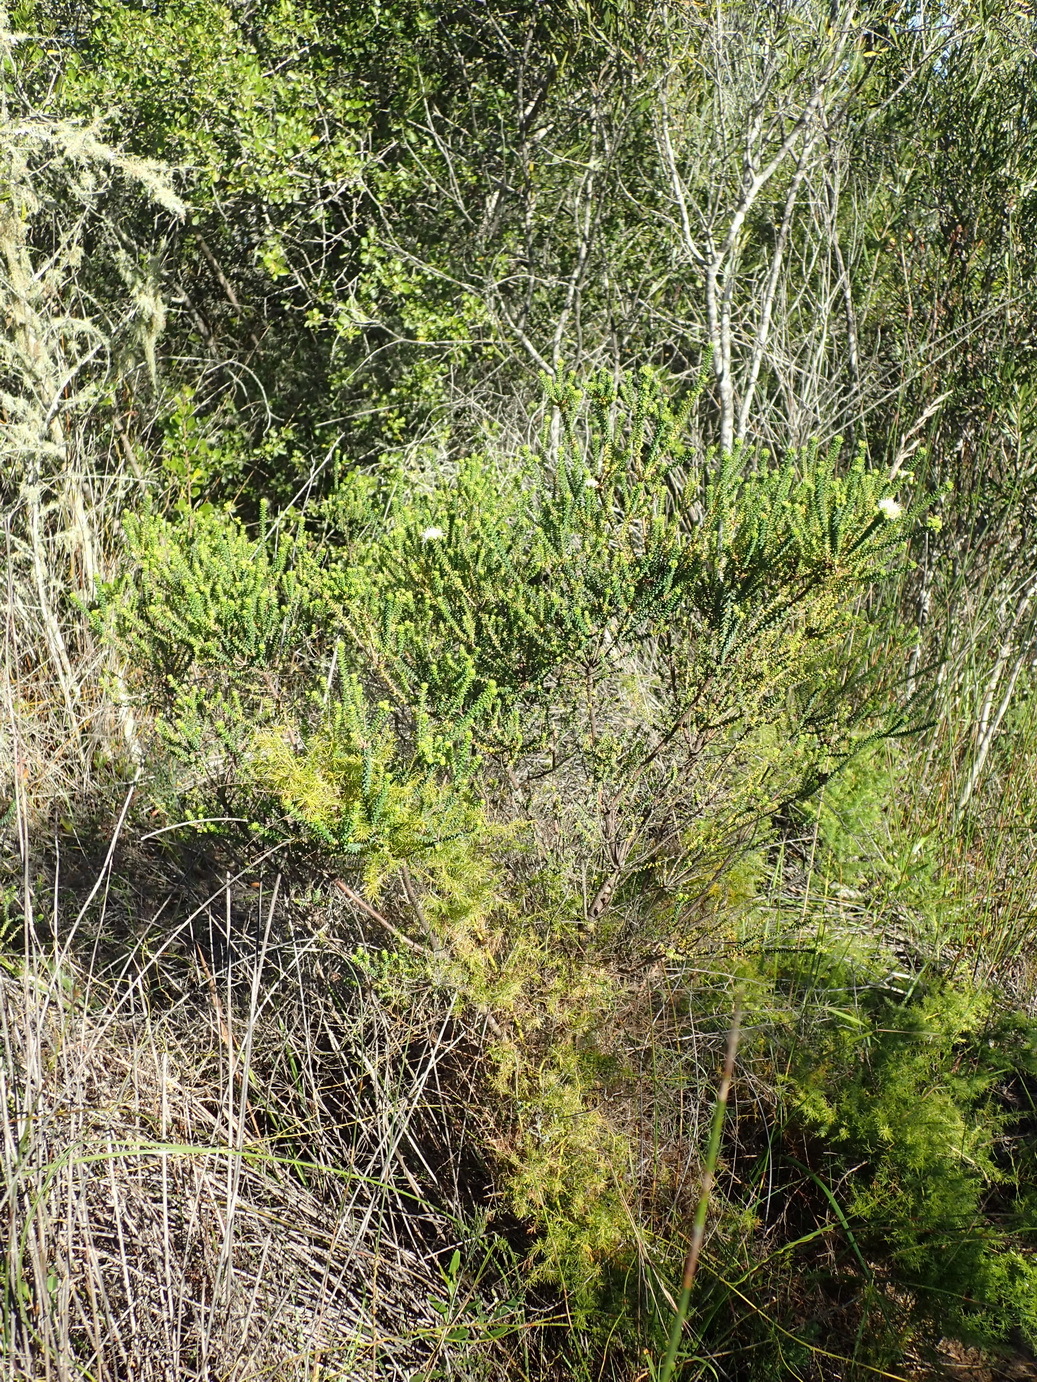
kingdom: Plantae
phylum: Tracheophyta
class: Magnoliopsida
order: Sapindales
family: Rutaceae
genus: Agathosma
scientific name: Agathosma apiculata
